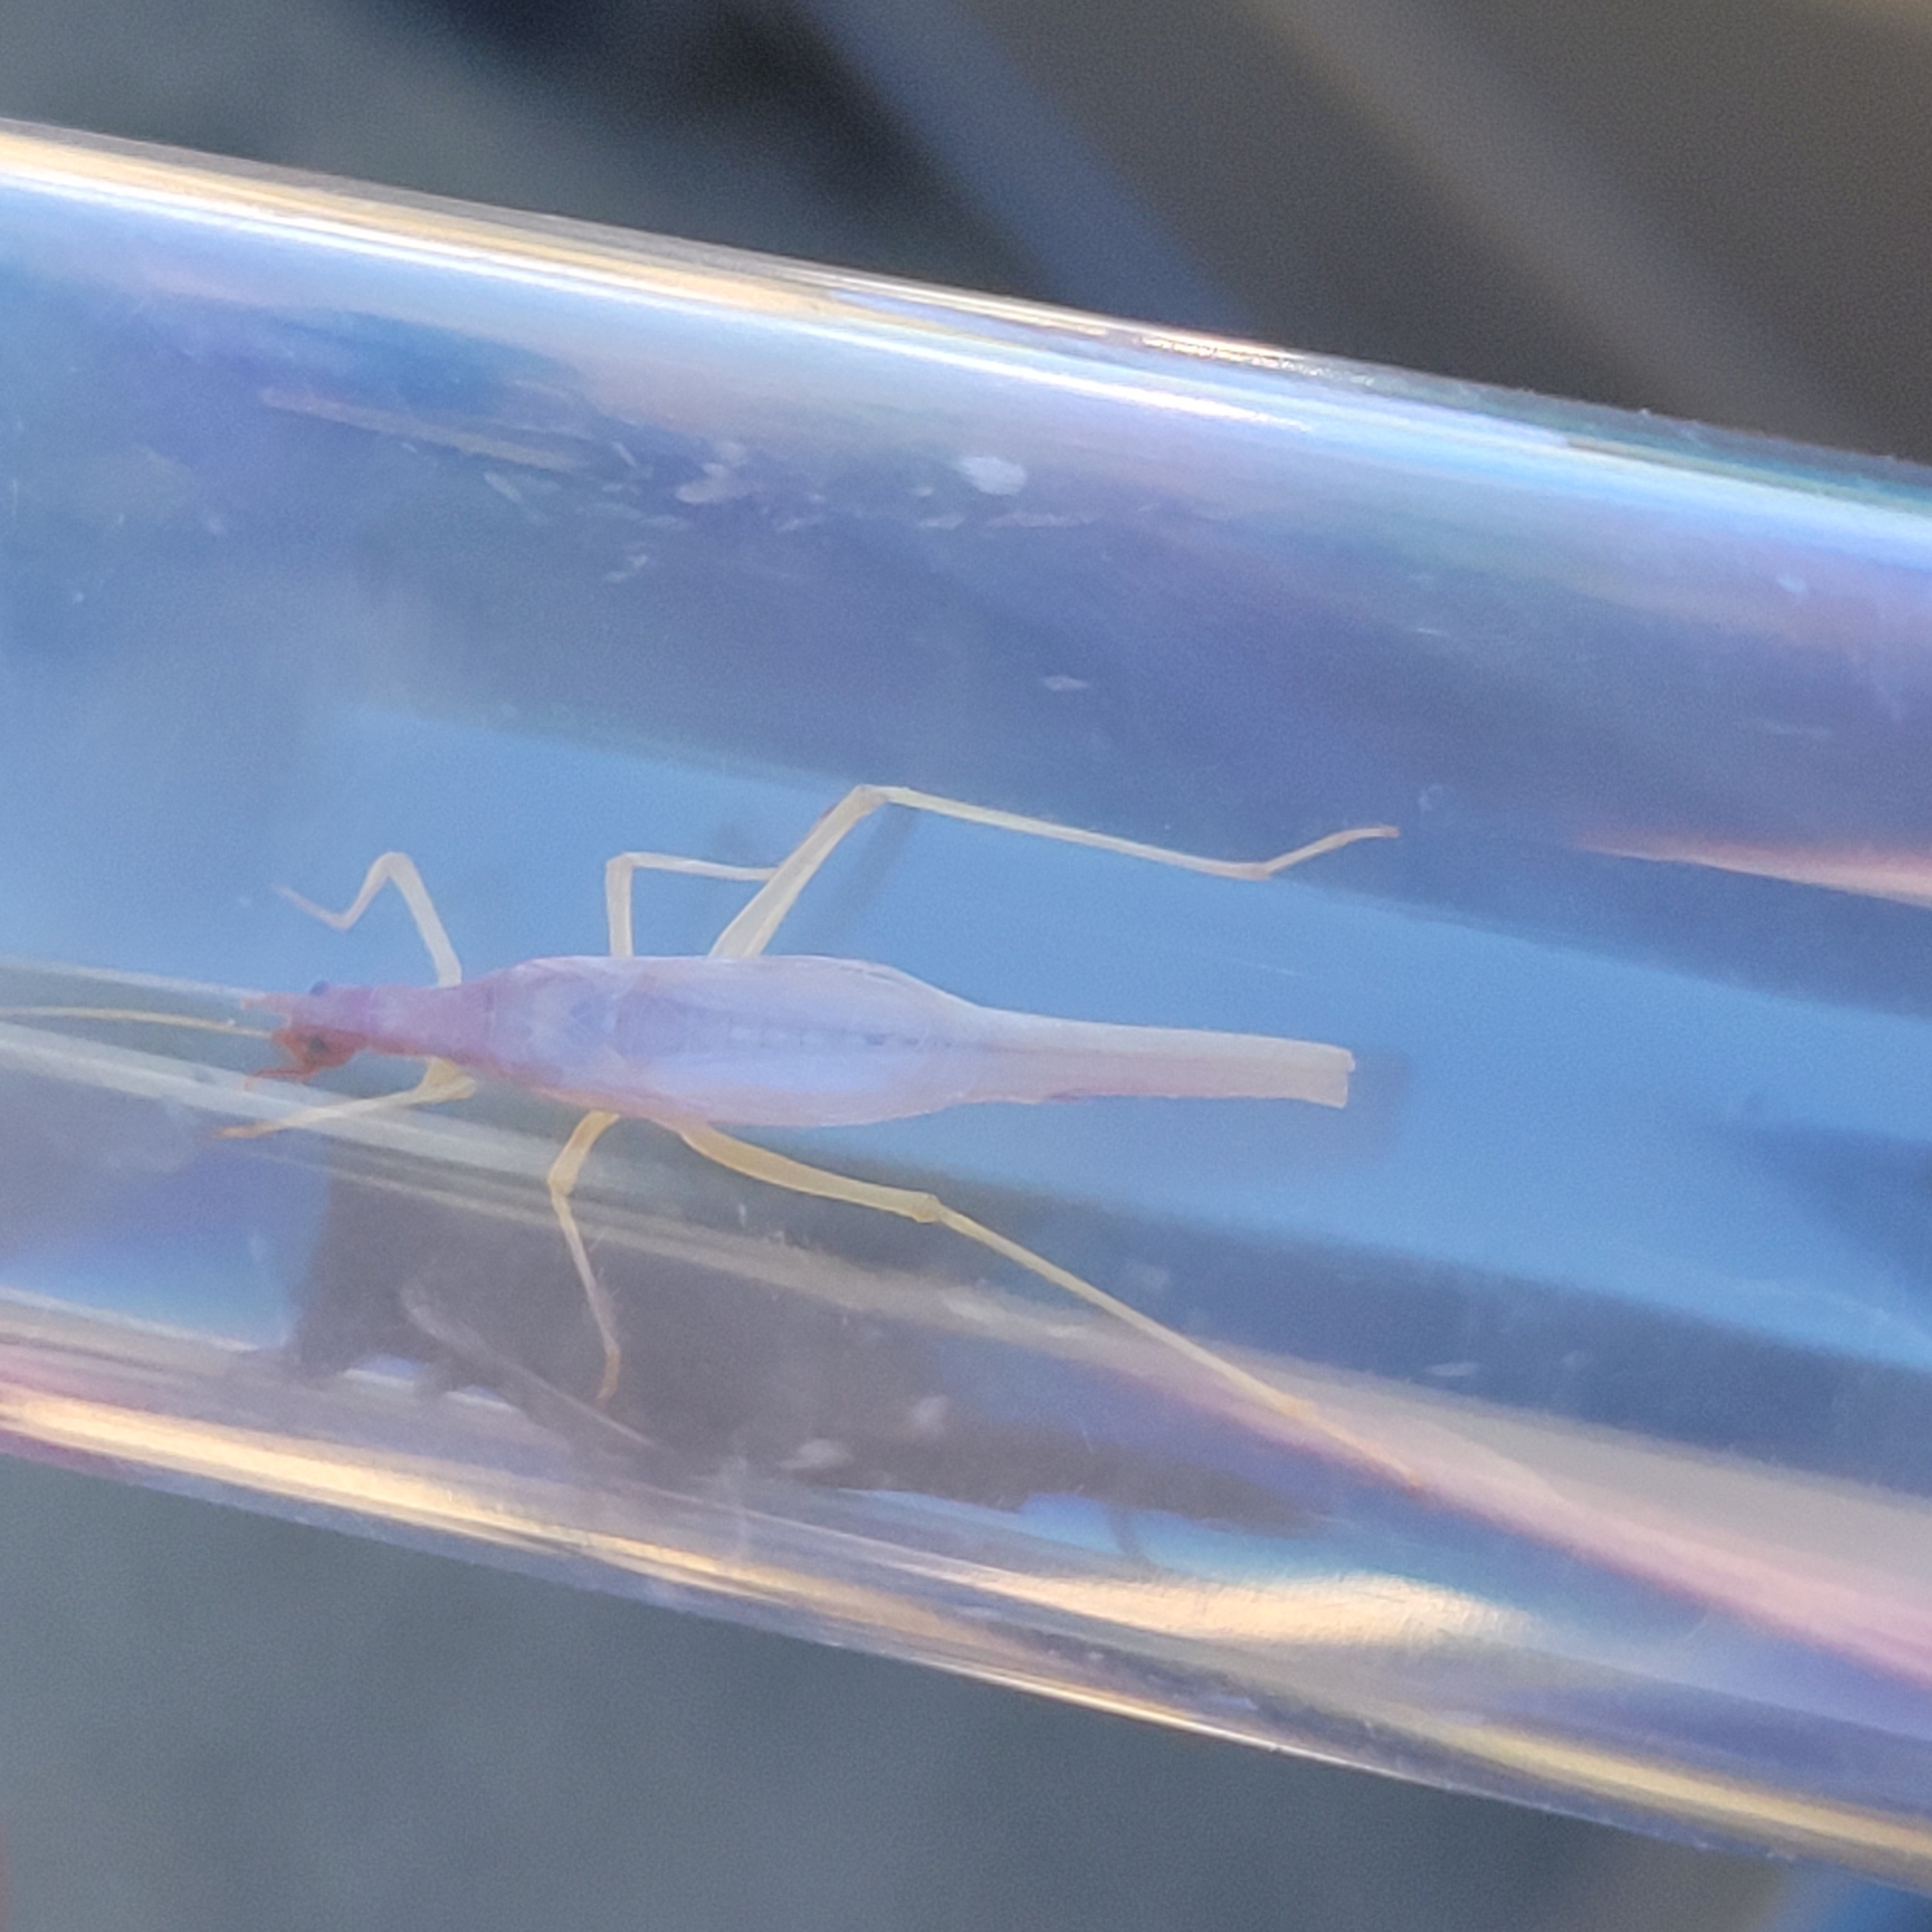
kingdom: Animalia
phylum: Arthropoda
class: Insecta
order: Orthoptera
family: Gryllidae
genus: Neoxabea
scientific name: Neoxabea bipunctata
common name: Two-spotted tree cricket
